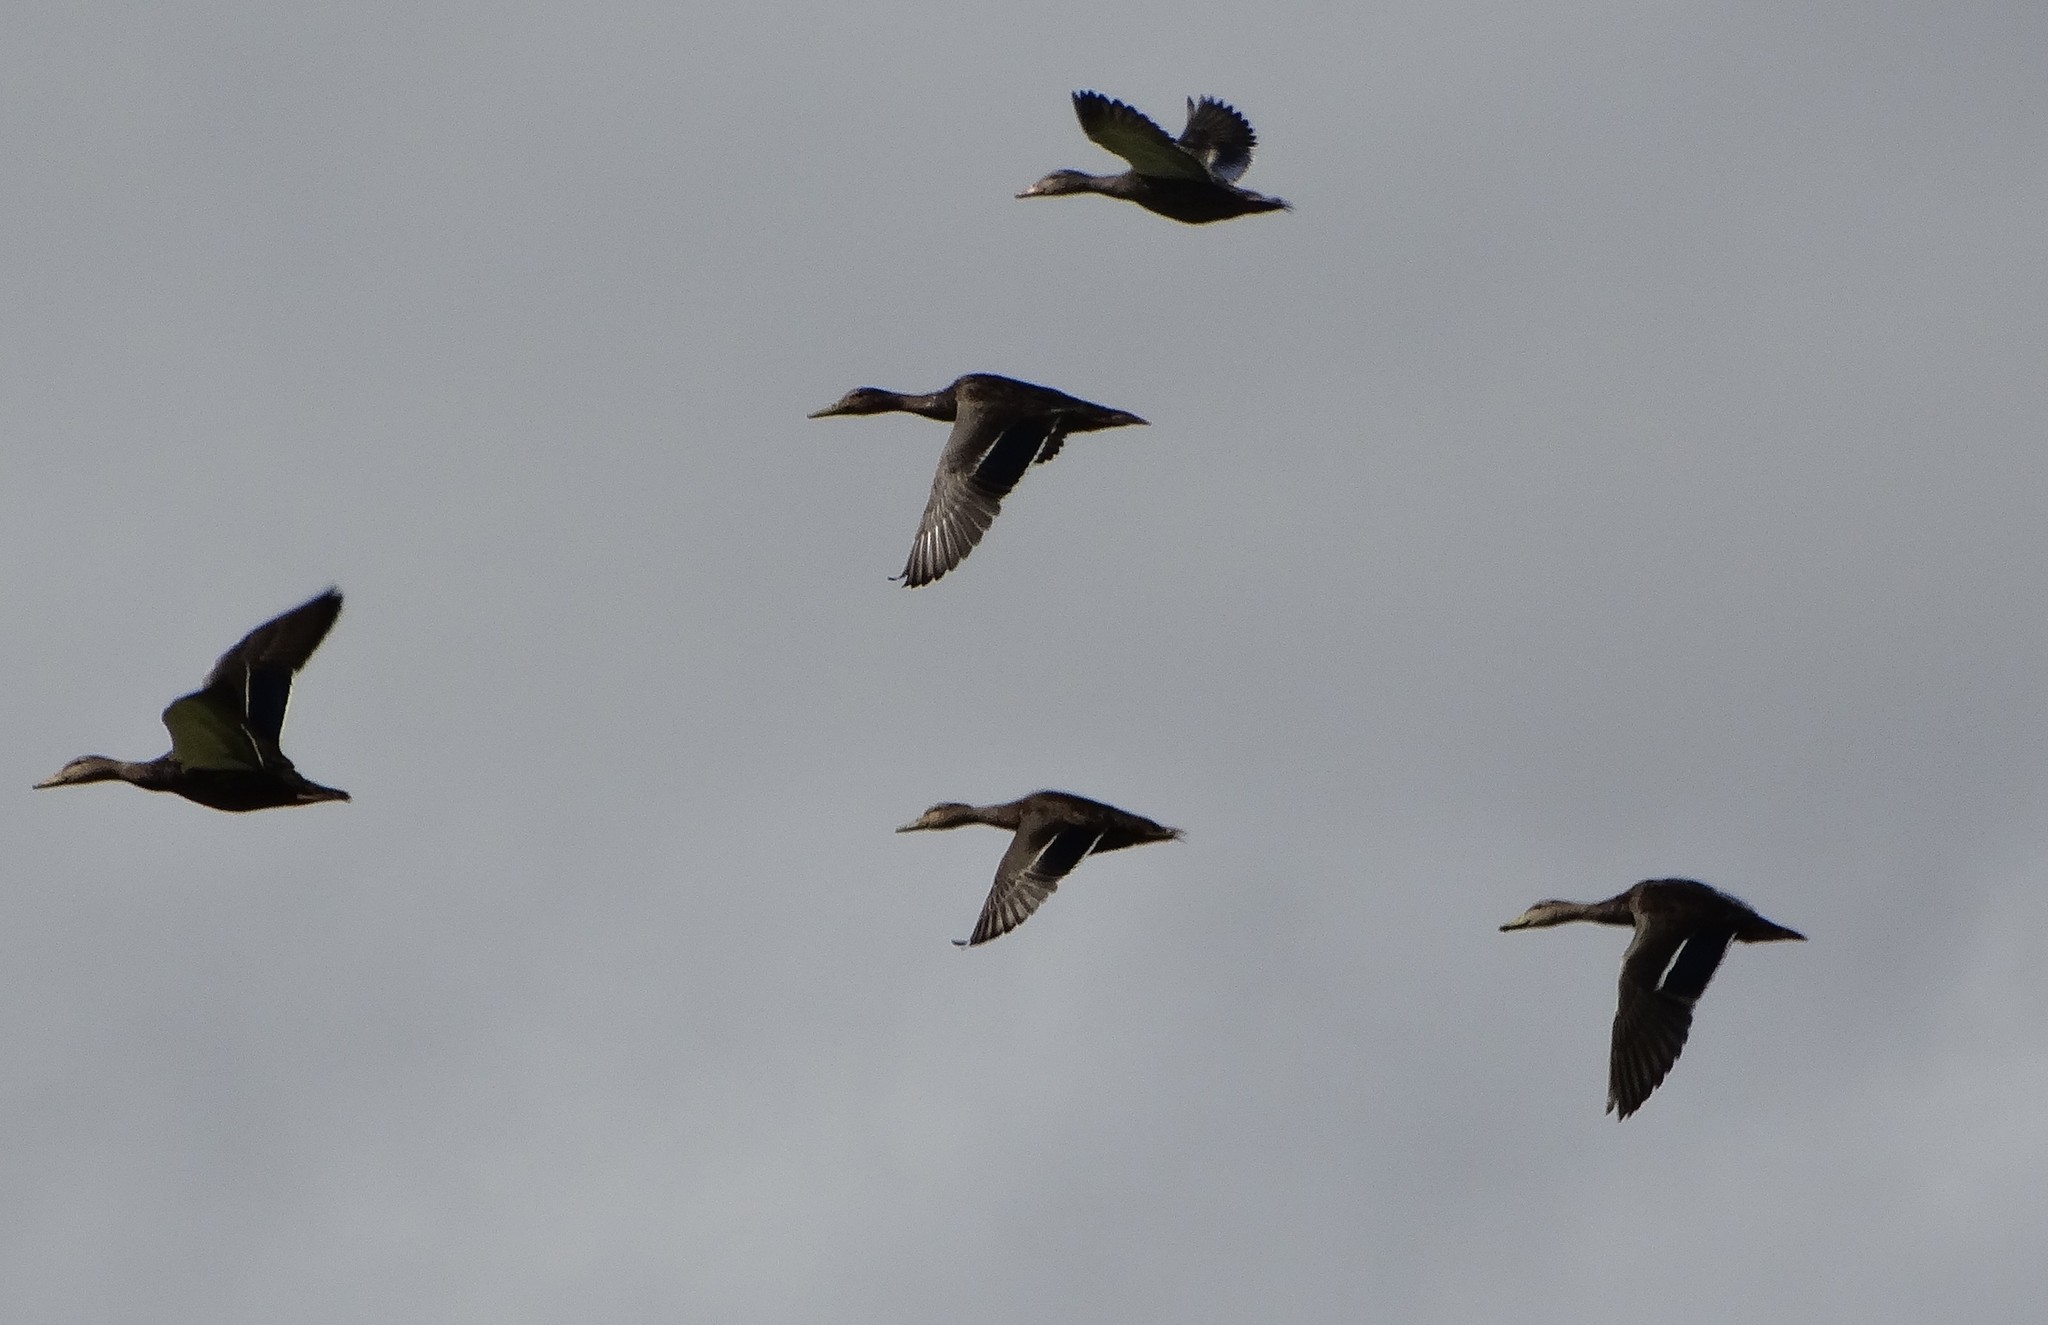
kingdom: Animalia
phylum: Chordata
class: Aves
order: Anseriformes
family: Anatidae
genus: Anas
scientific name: Anas diazi
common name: Mexican duck
